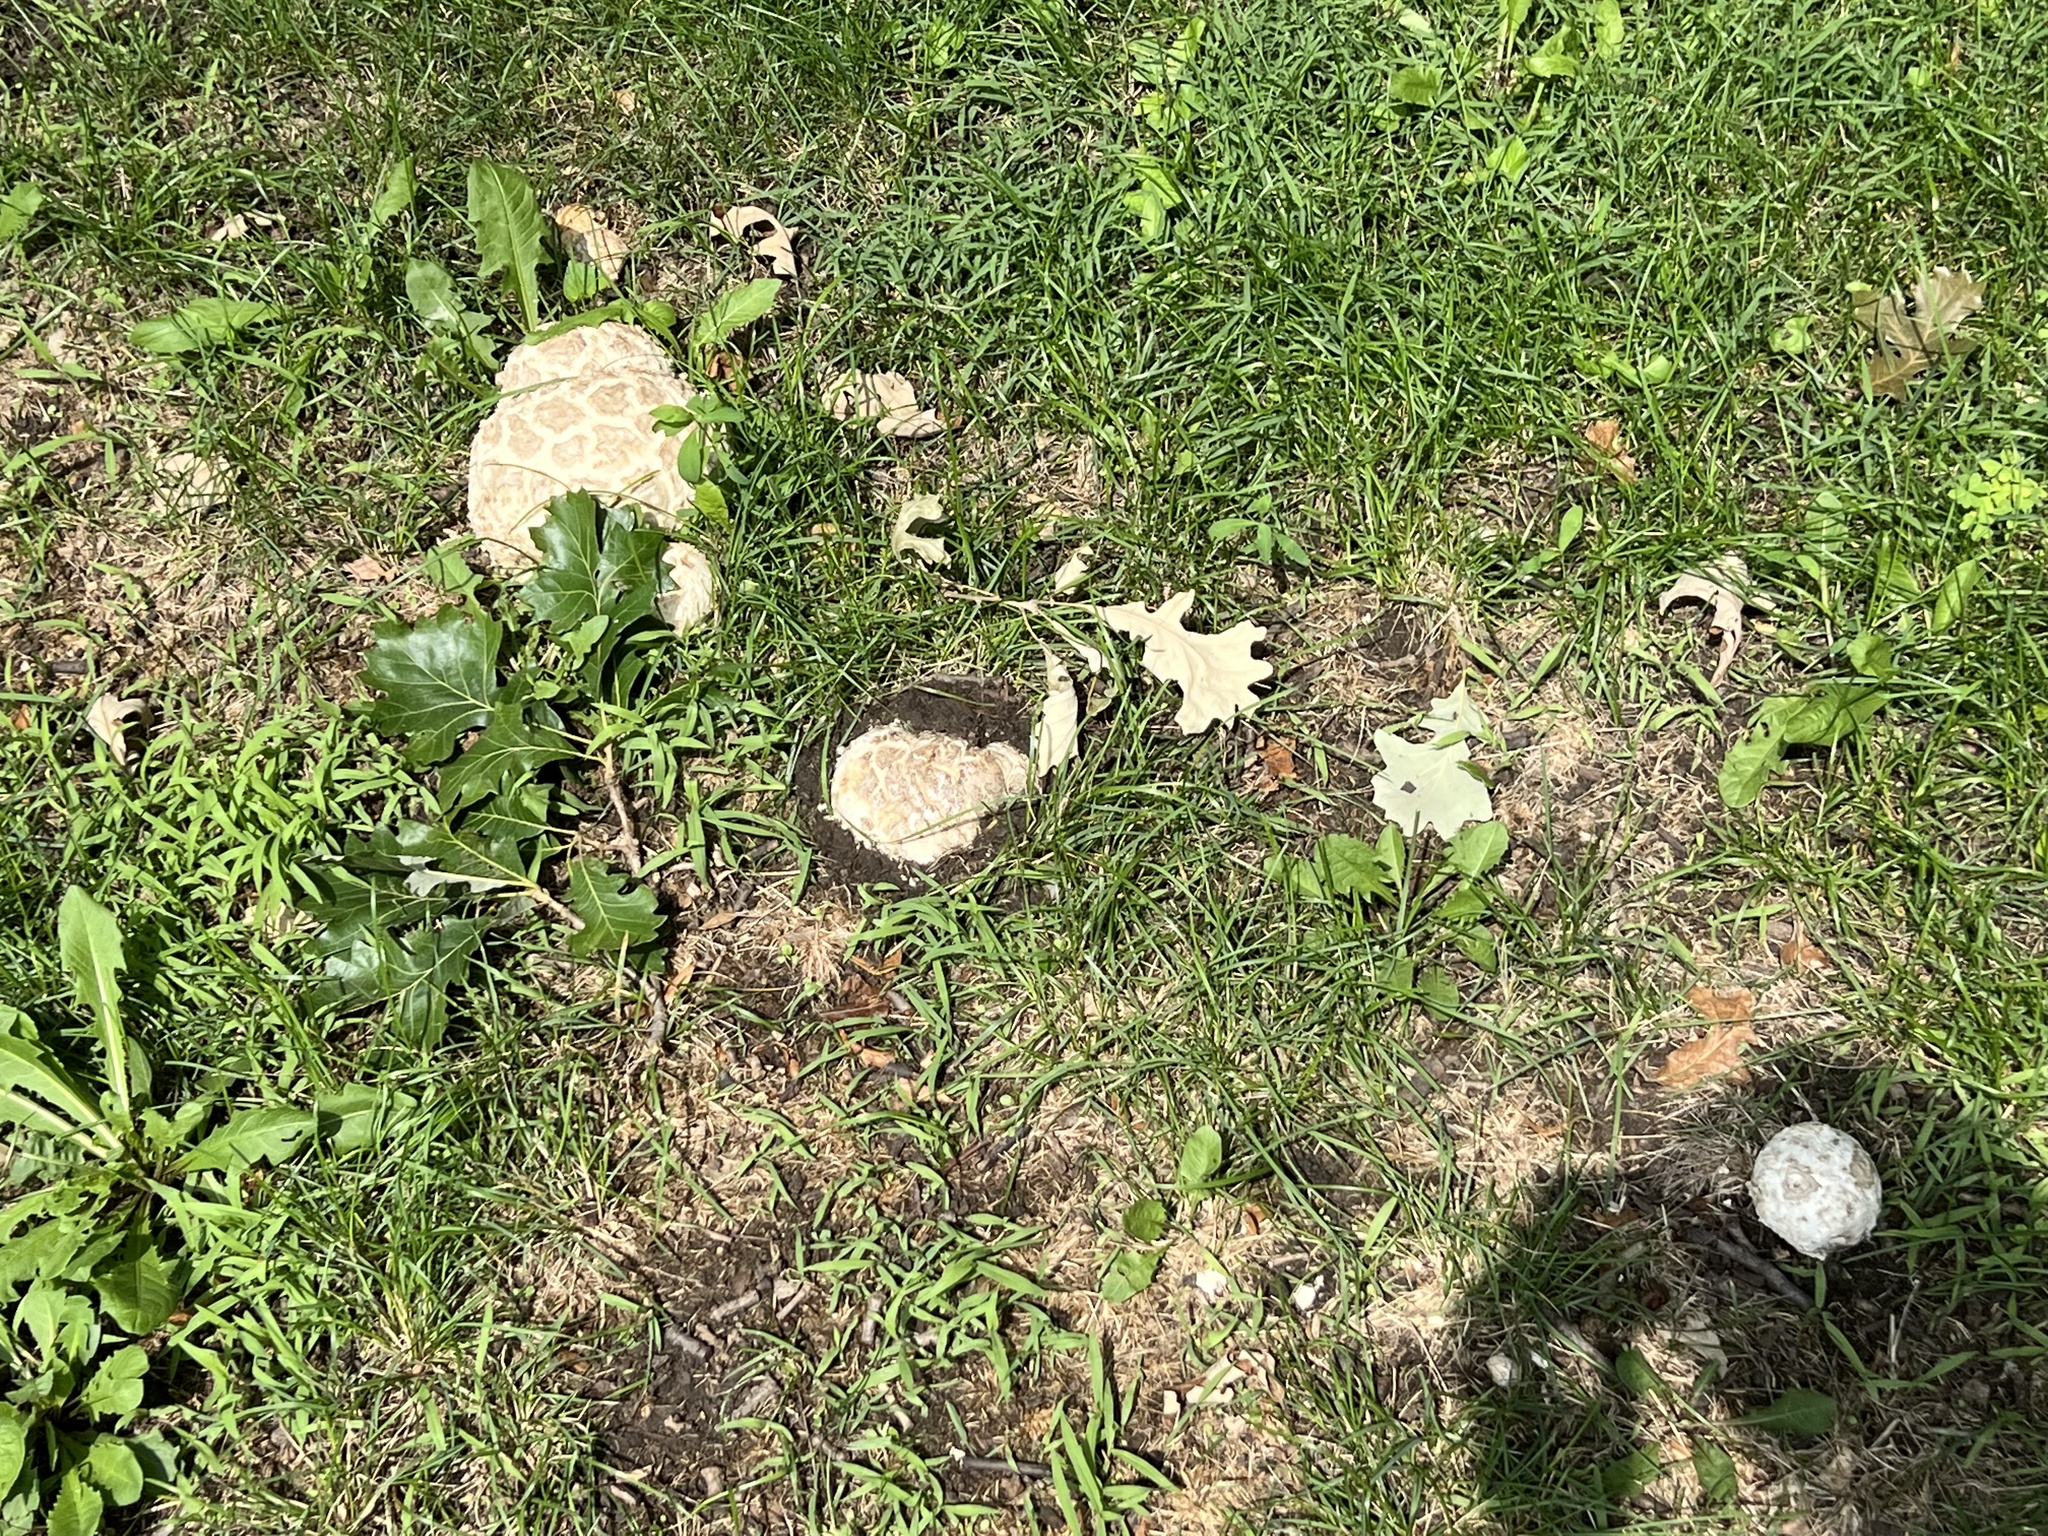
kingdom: Fungi
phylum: Basidiomycota
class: Agaricomycetes
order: Agaricales
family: Lycoperdaceae
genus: Calvatia
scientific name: Calvatia booniana
